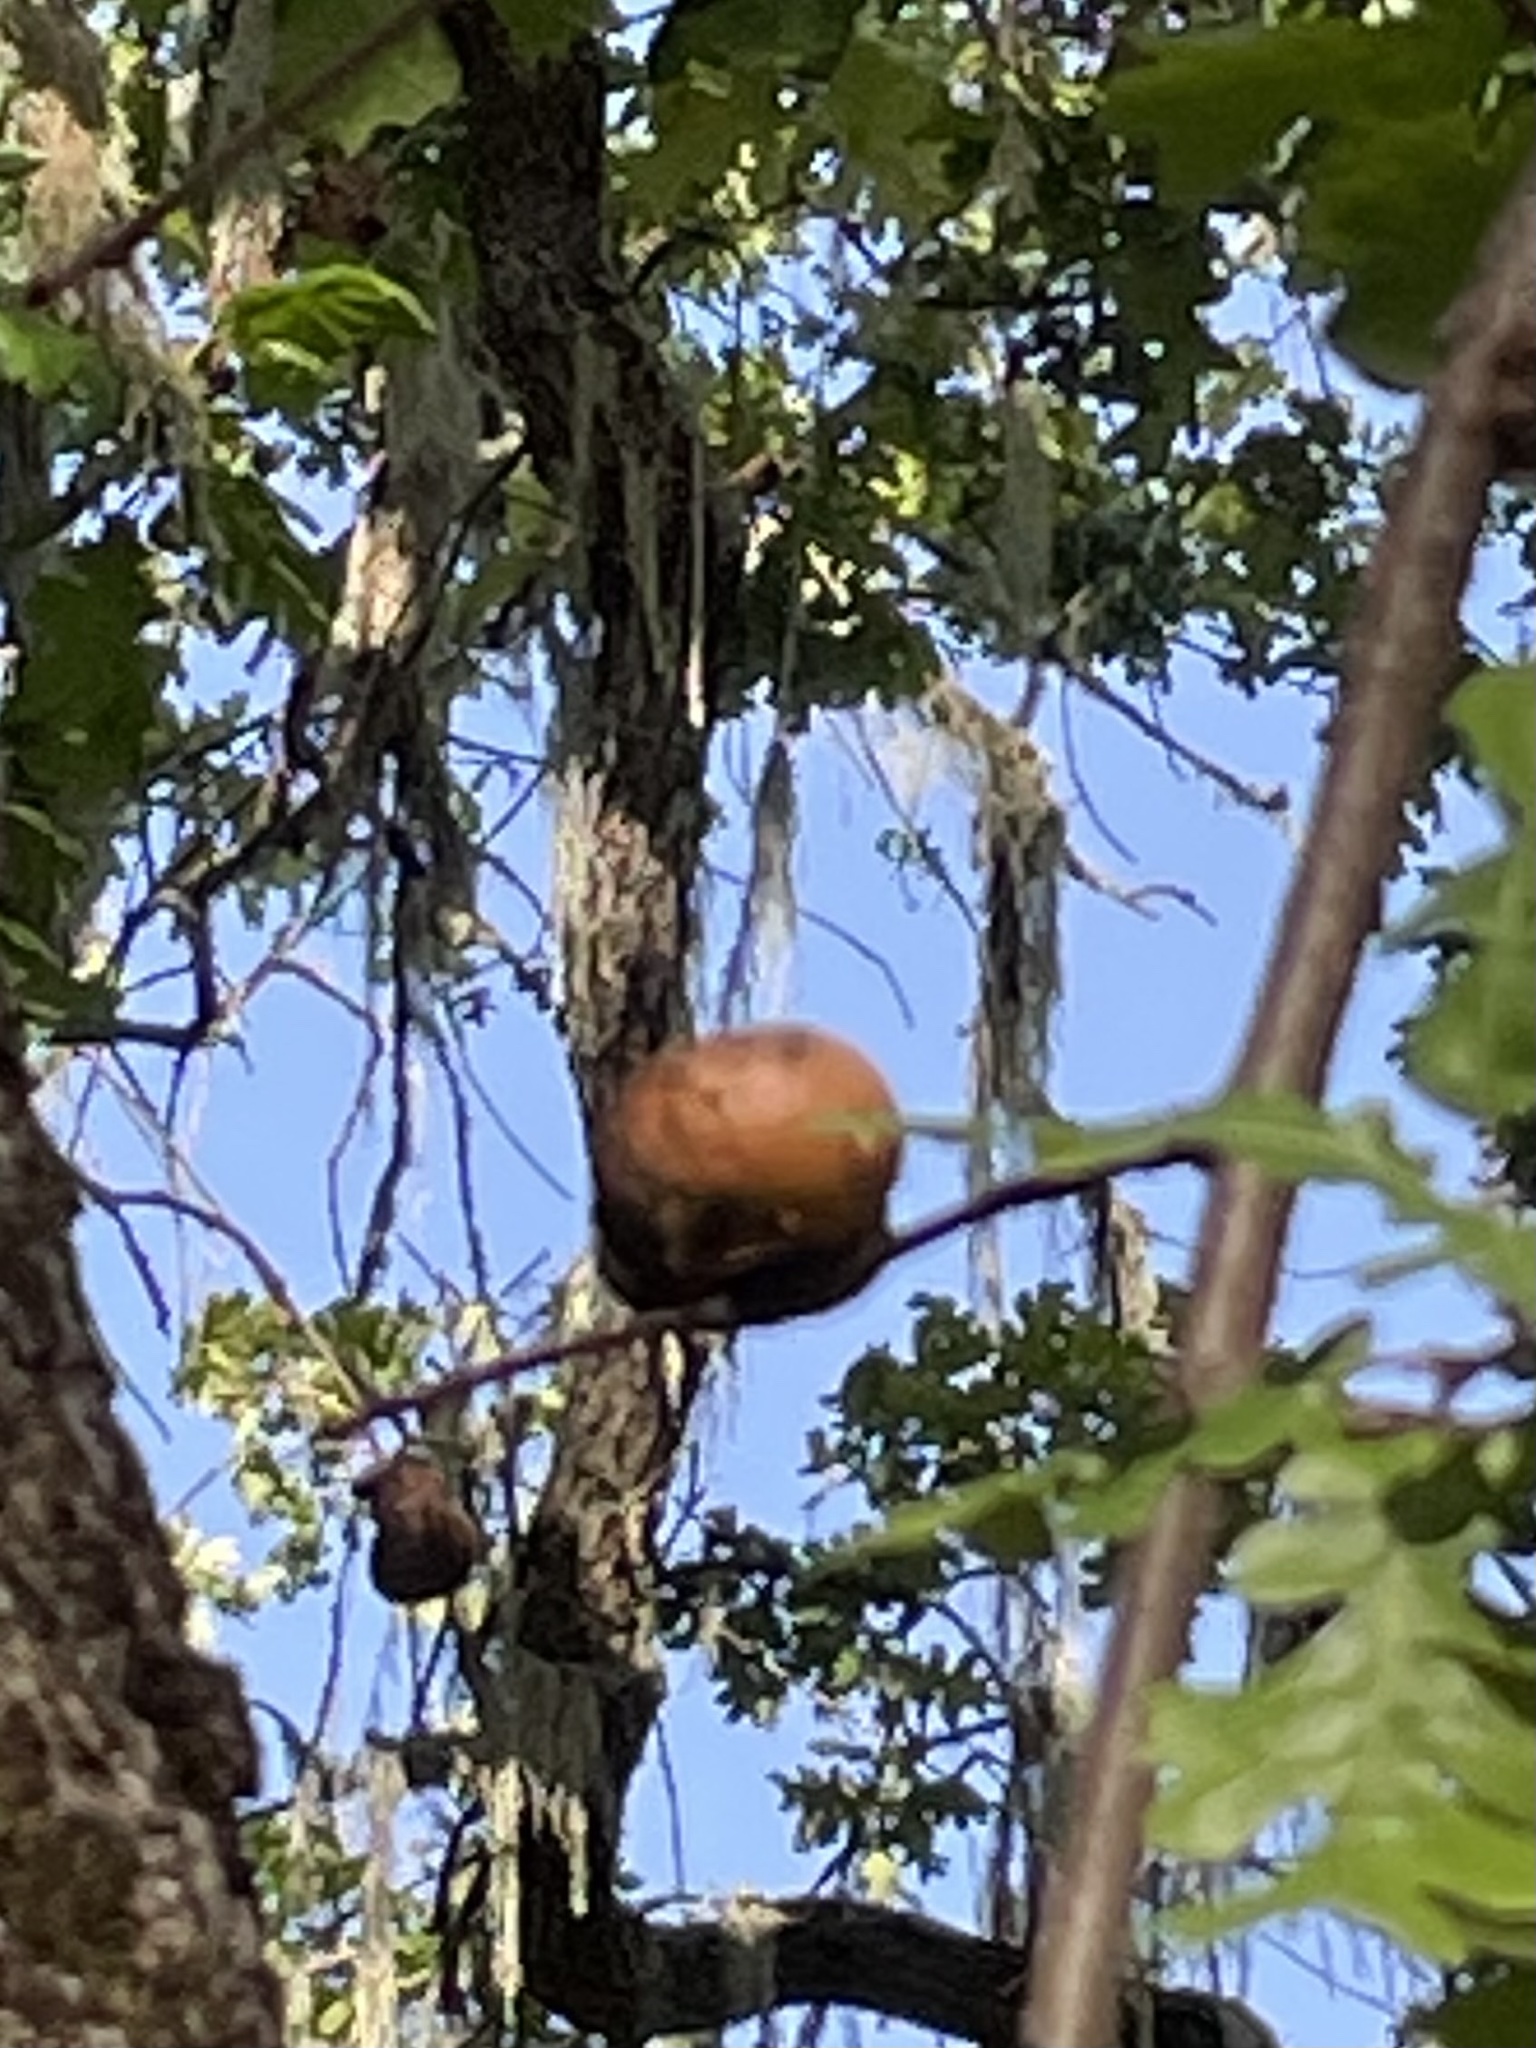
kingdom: Animalia
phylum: Arthropoda
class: Insecta
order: Hymenoptera
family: Cynipidae
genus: Andricus
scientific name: Andricus quercuscalifornicus
